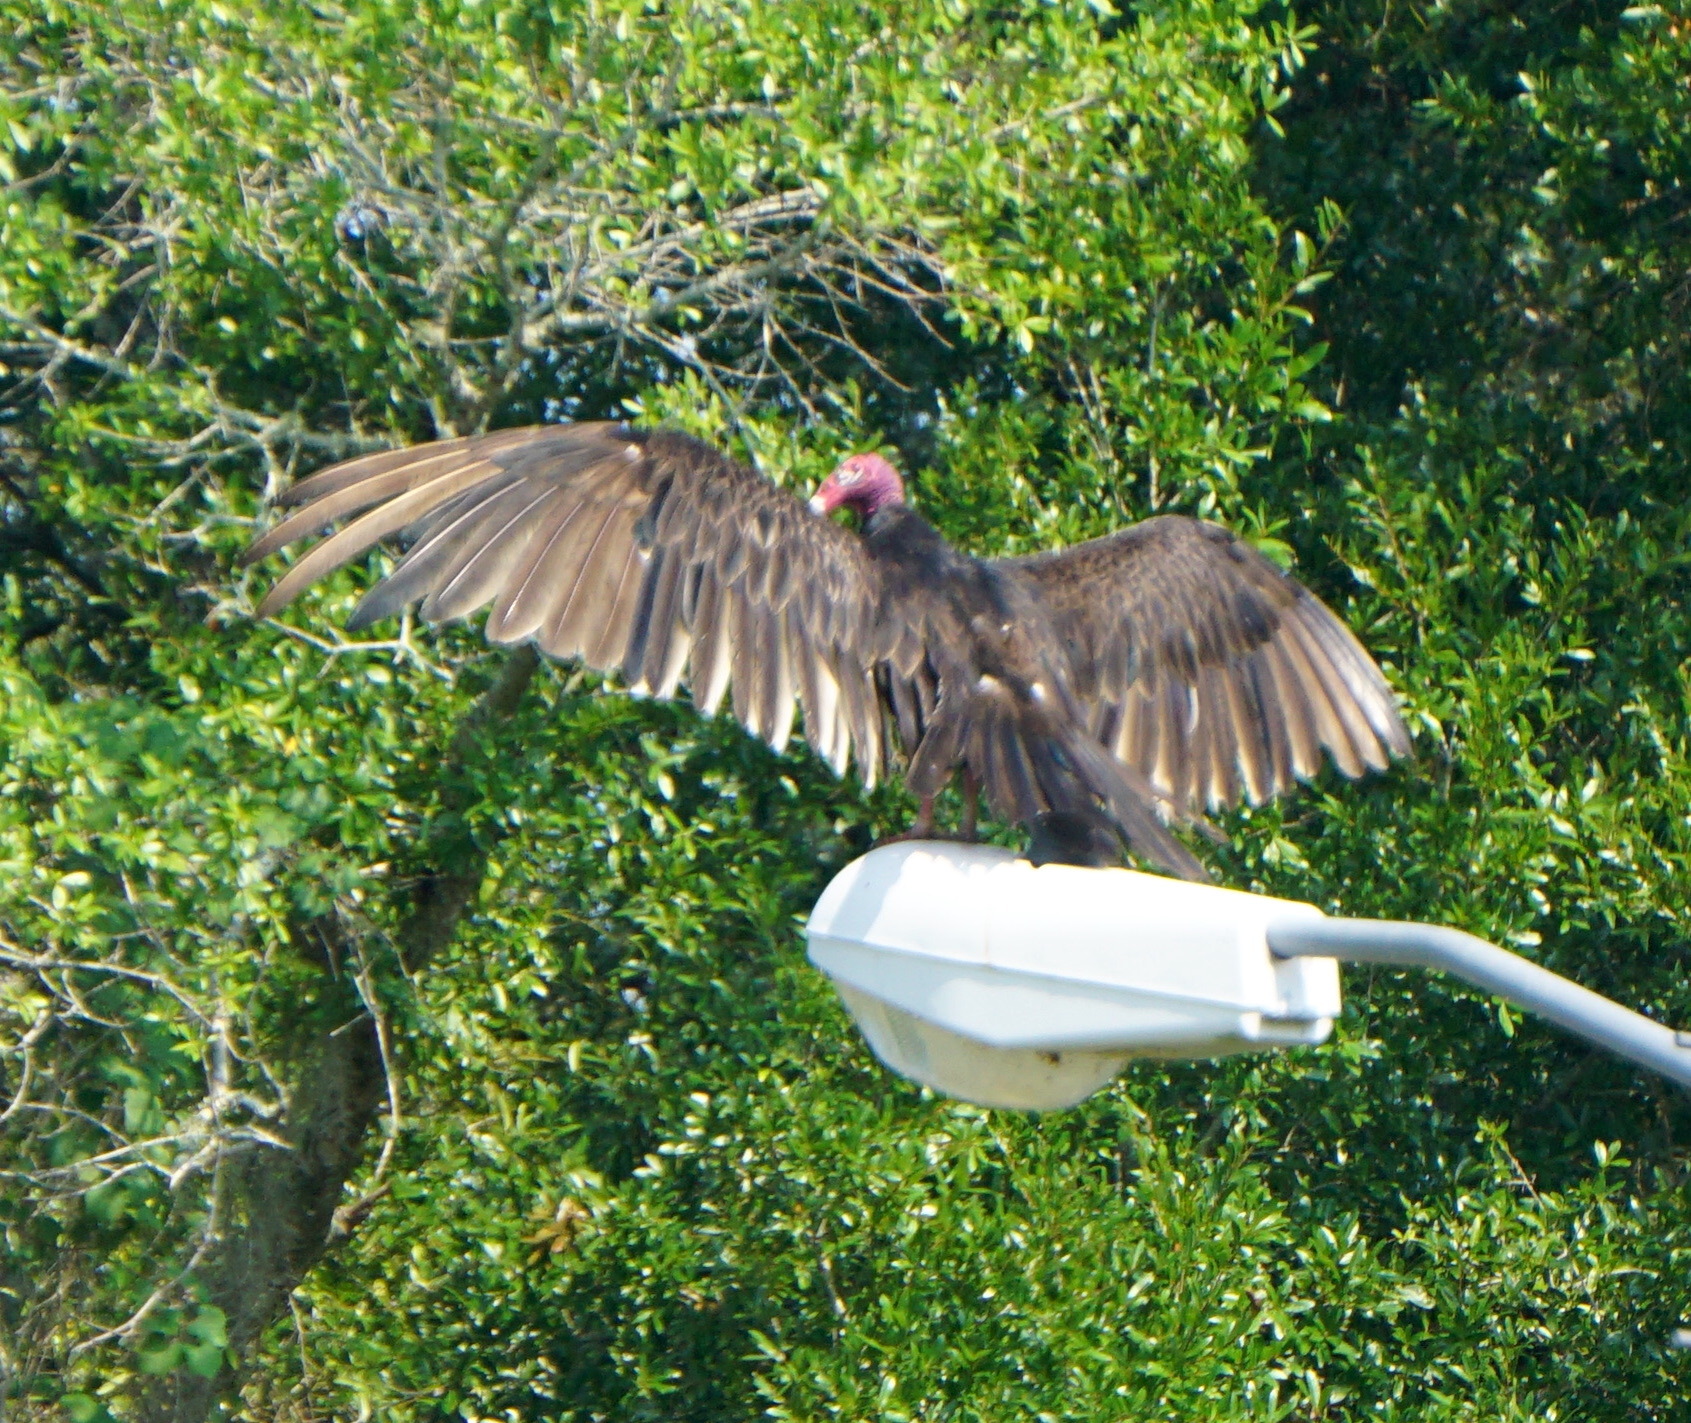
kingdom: Animalia
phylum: Chordata
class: Aves
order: Accipitriformes
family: Cathartidae
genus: Cathartes
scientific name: Cathartes aura
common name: Turkey vulture
